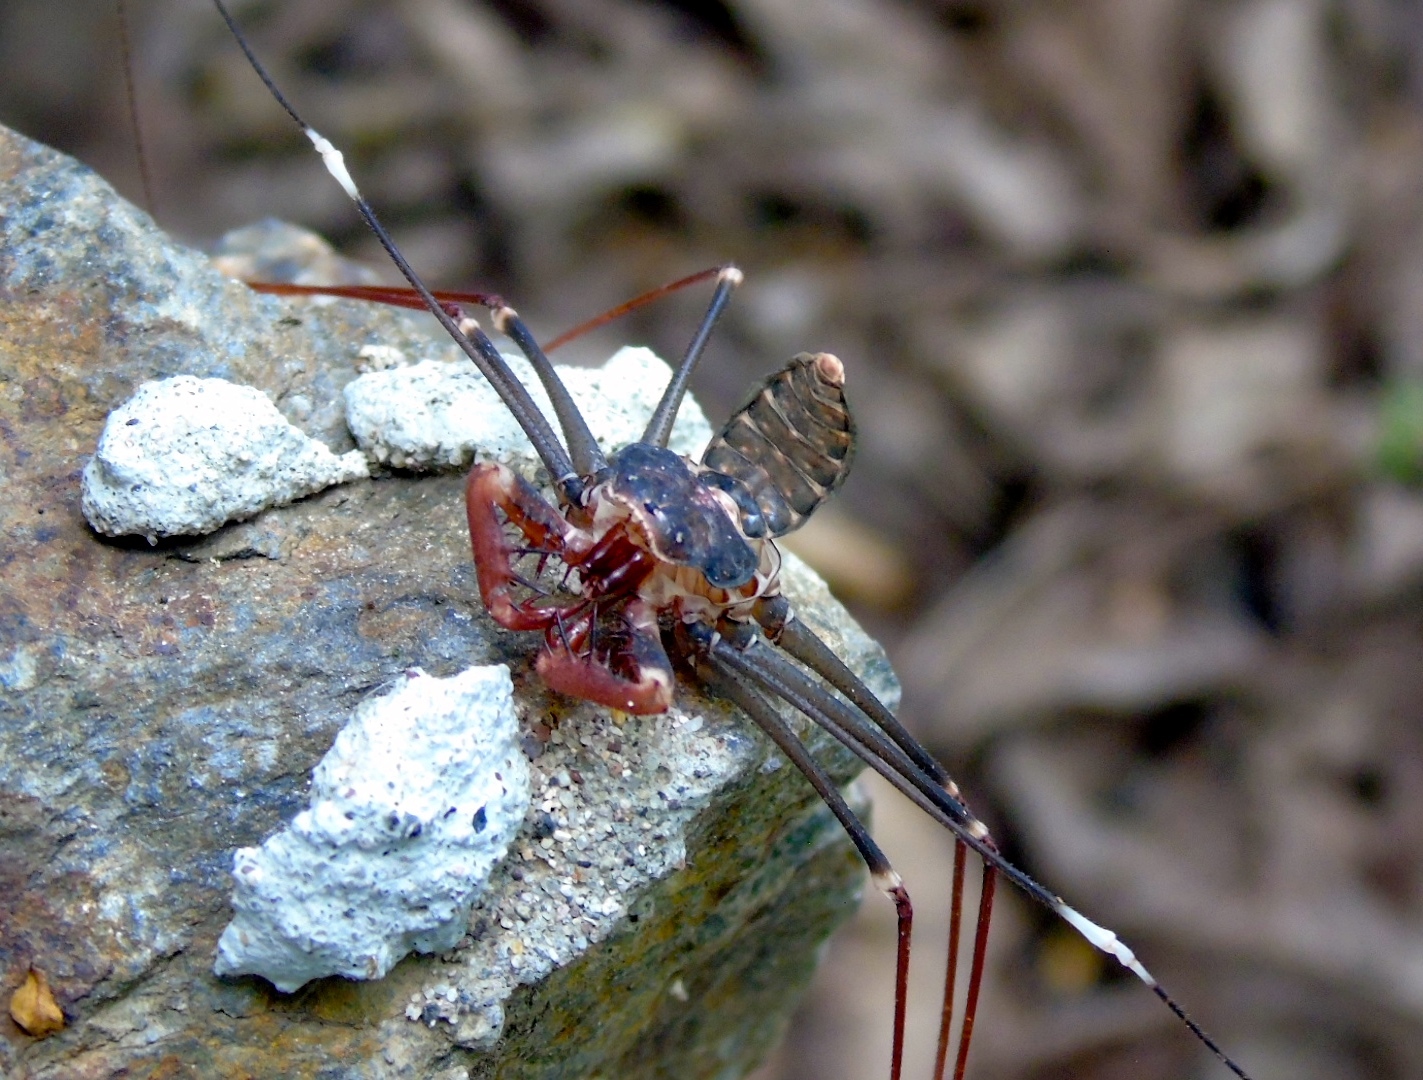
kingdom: Animalia
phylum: Arthropoda
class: Arachnida
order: Amblypygi
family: Phrynidae
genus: Acanthophrynus
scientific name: Acanthophrynus coronatus
